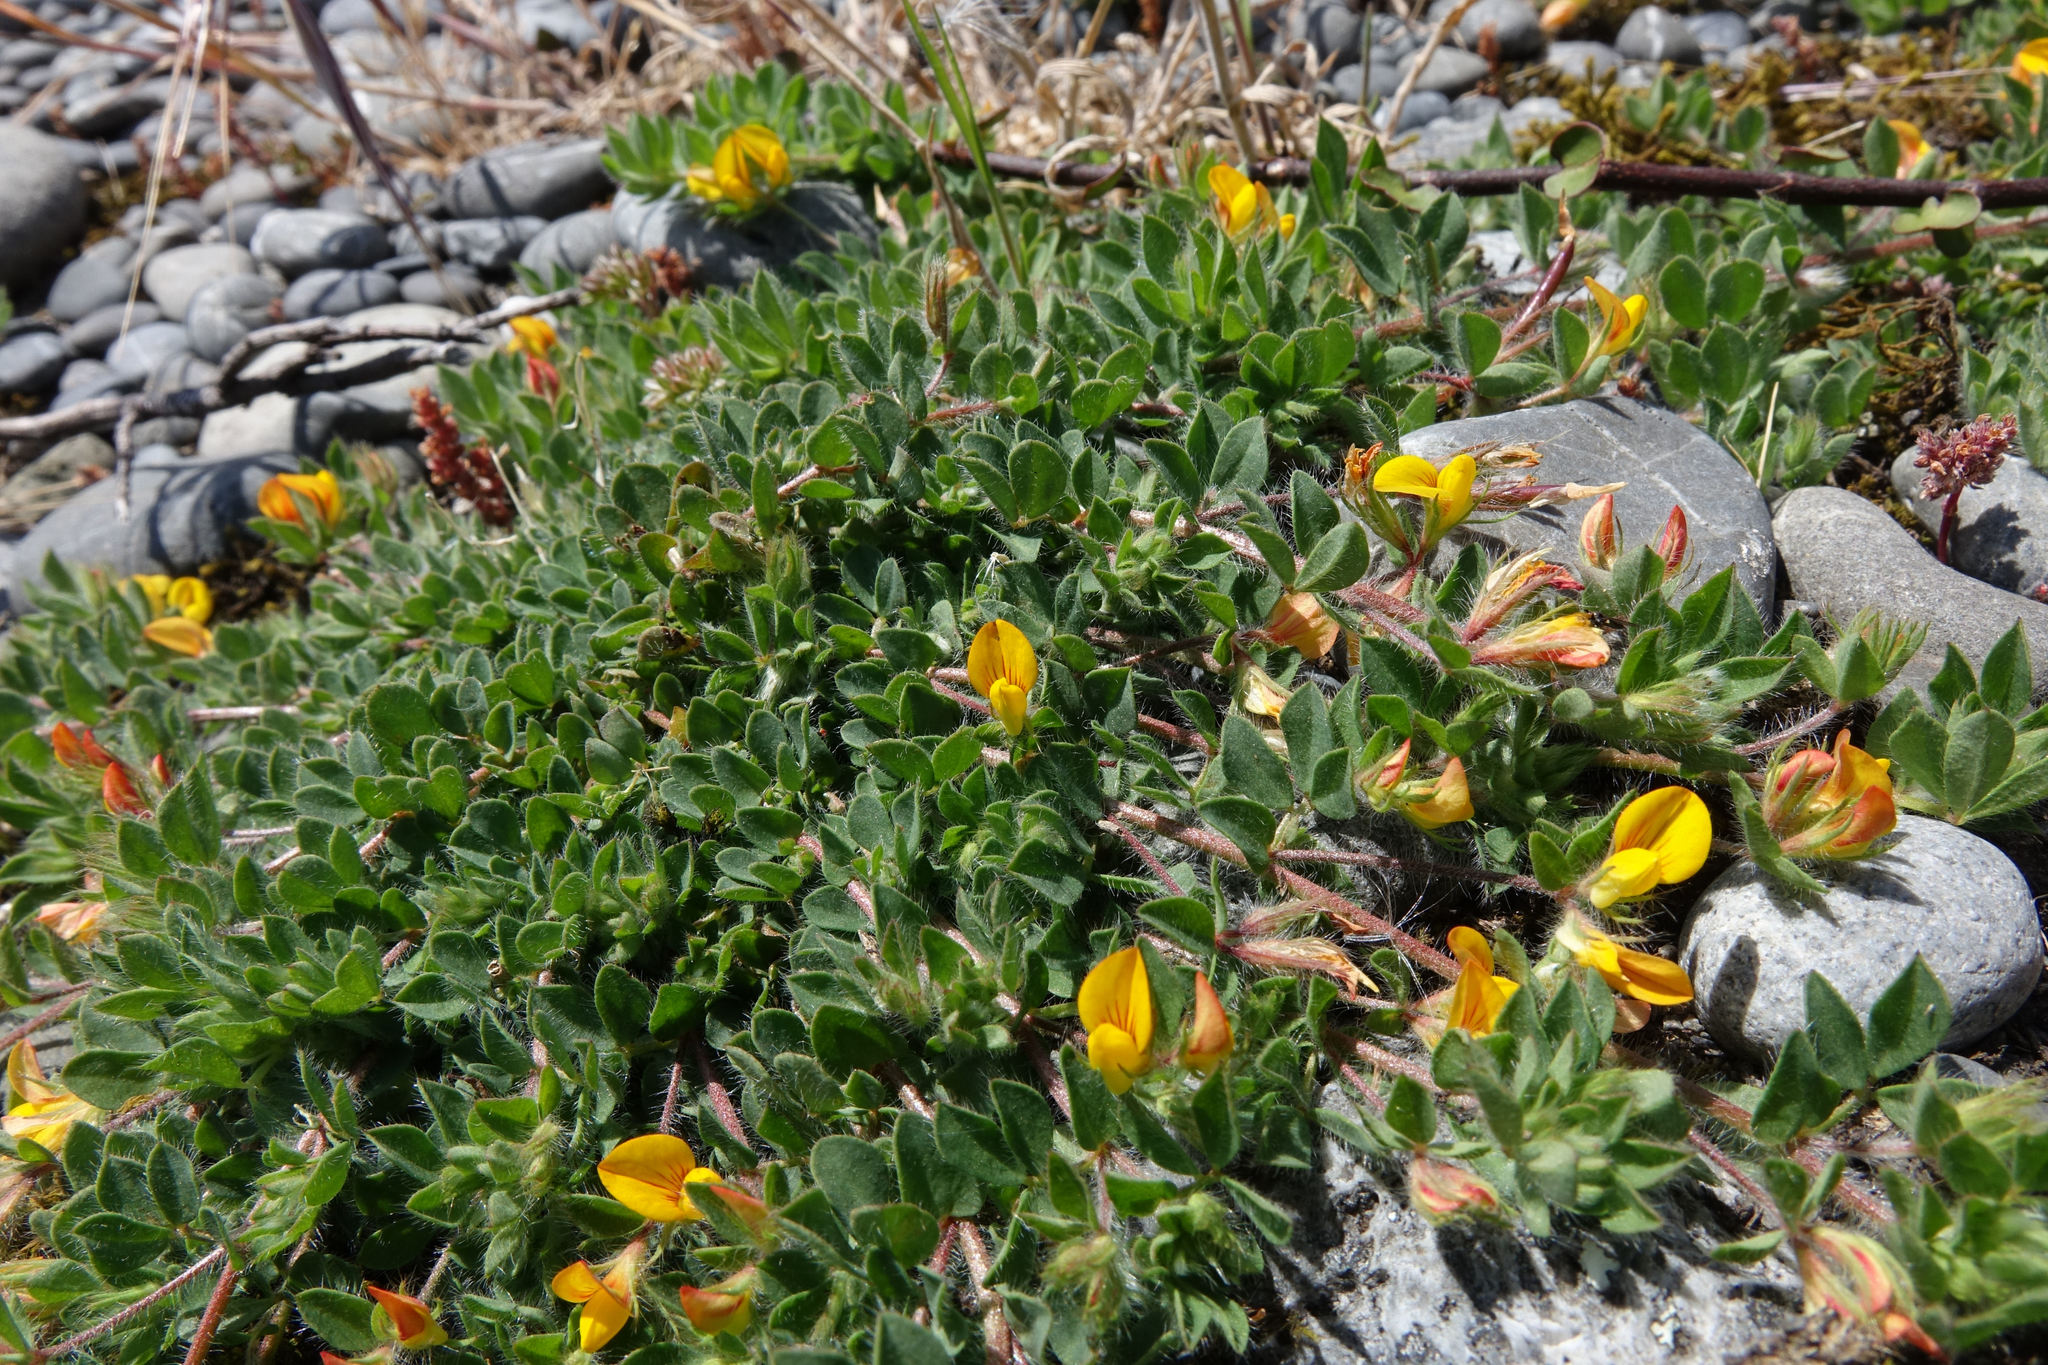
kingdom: Plantae
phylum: Tracheophyta
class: Magnoliopsida
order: Fabales
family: Fabaceae
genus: Lotus
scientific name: Lotus subbiflorus
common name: Hairy bird's-foot trefoil
